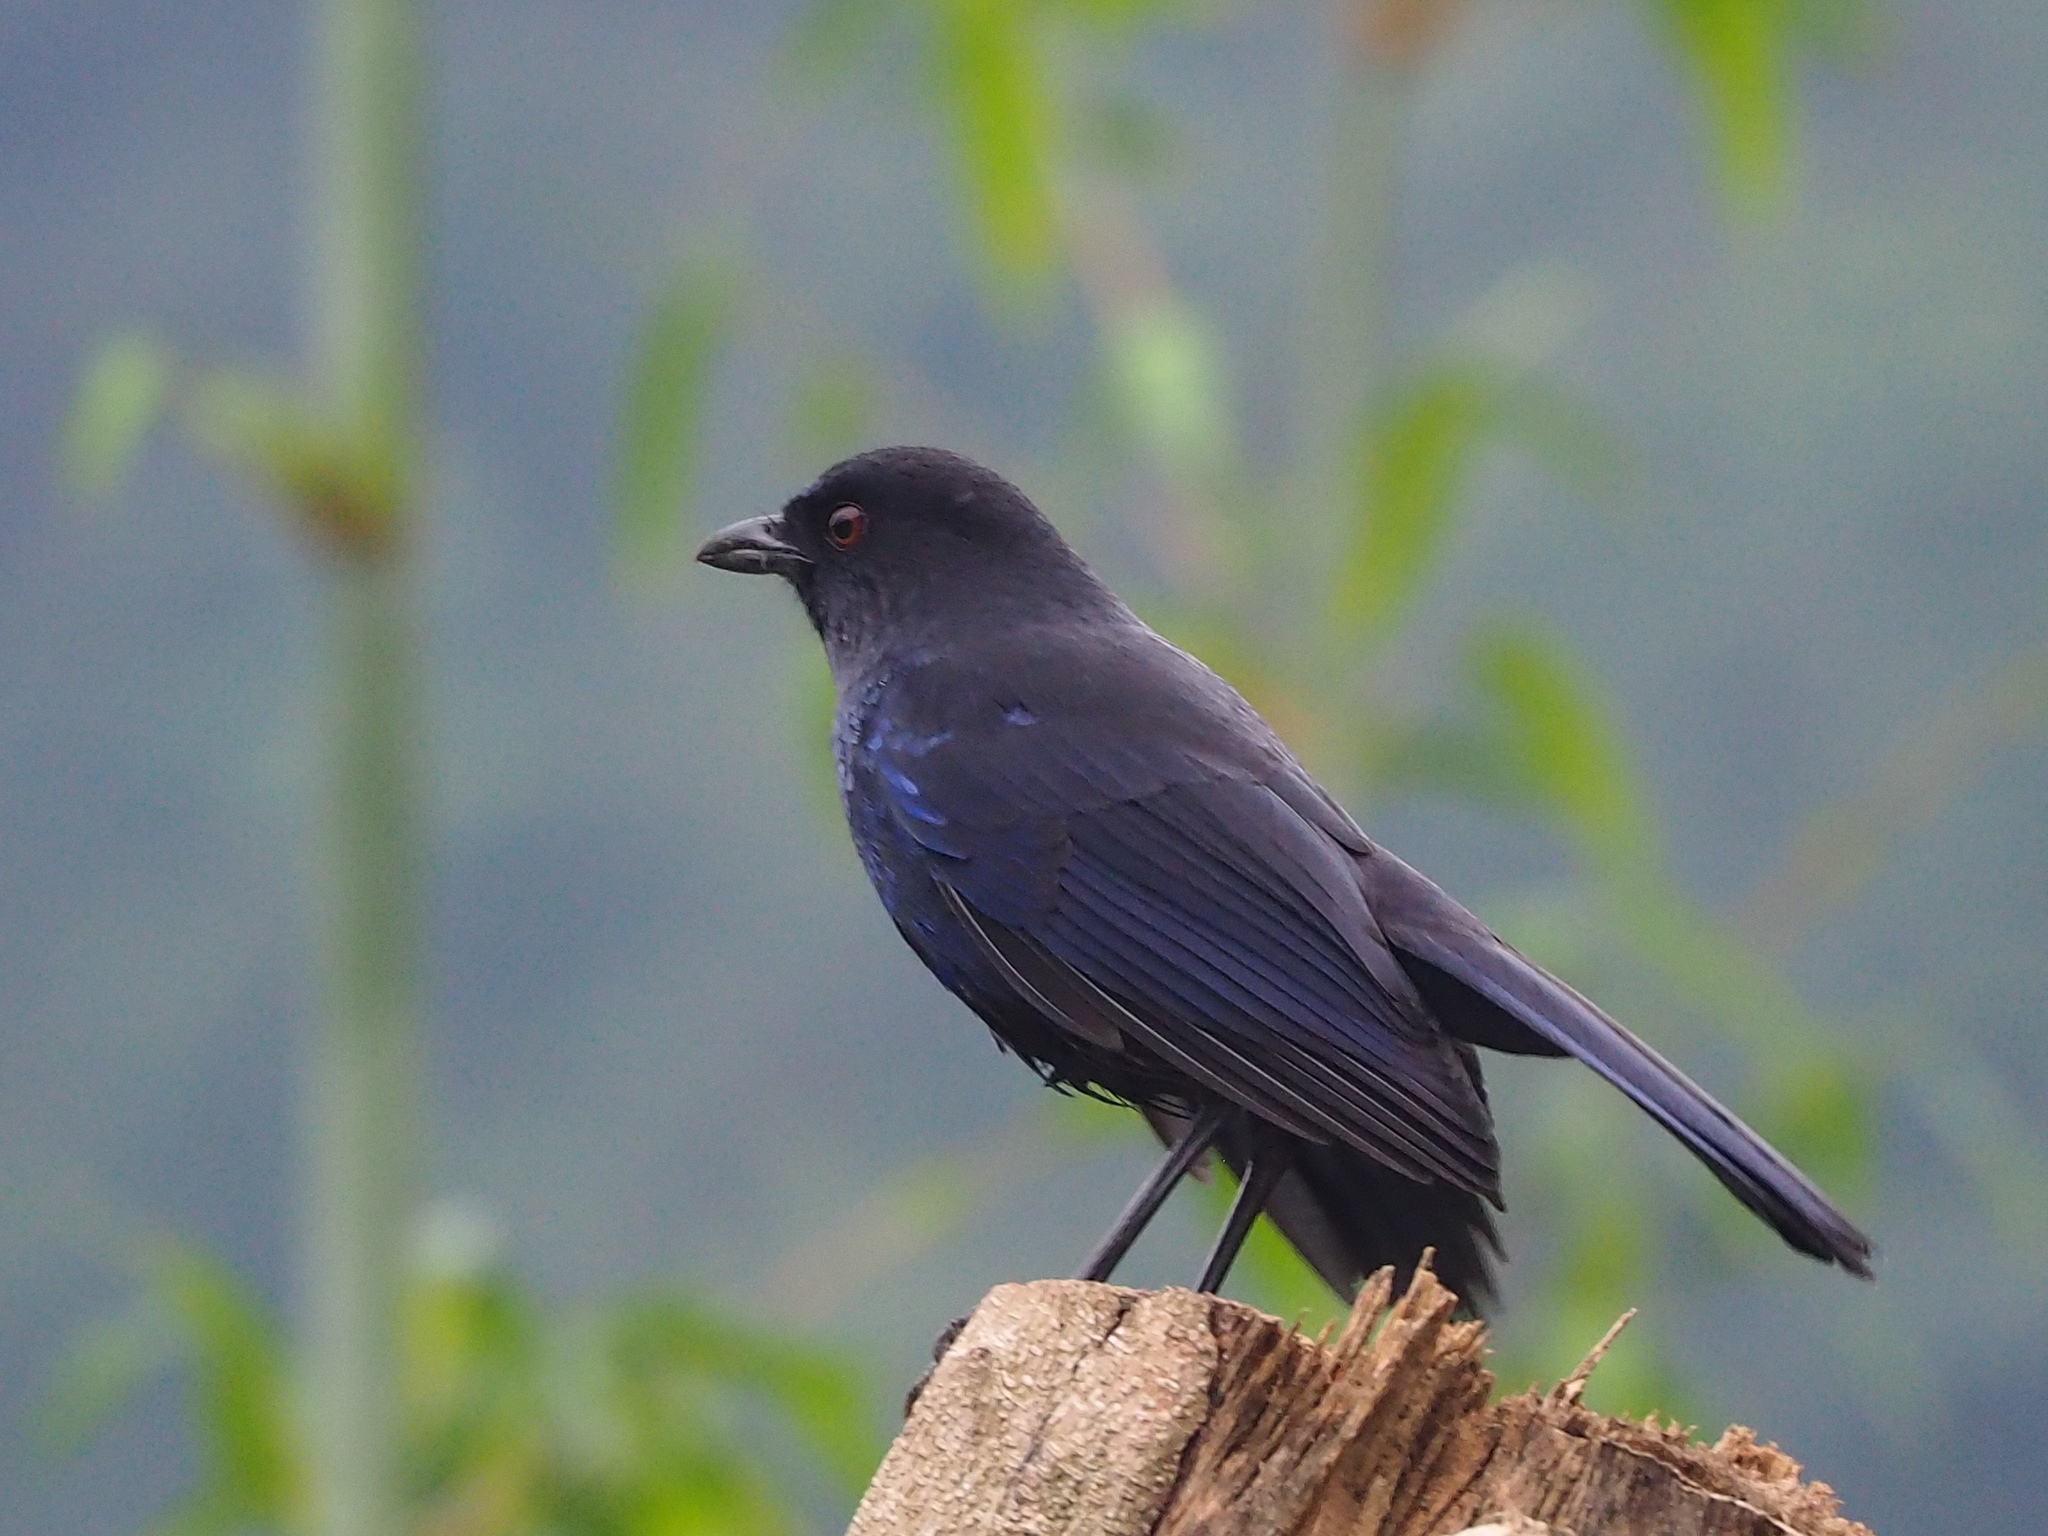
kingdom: Animalia
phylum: Chordata
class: Aves
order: Passeriformes
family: Muscicapidae
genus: Myophonus
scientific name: Myophonus insularis
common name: Taiwan whistling-thrush
